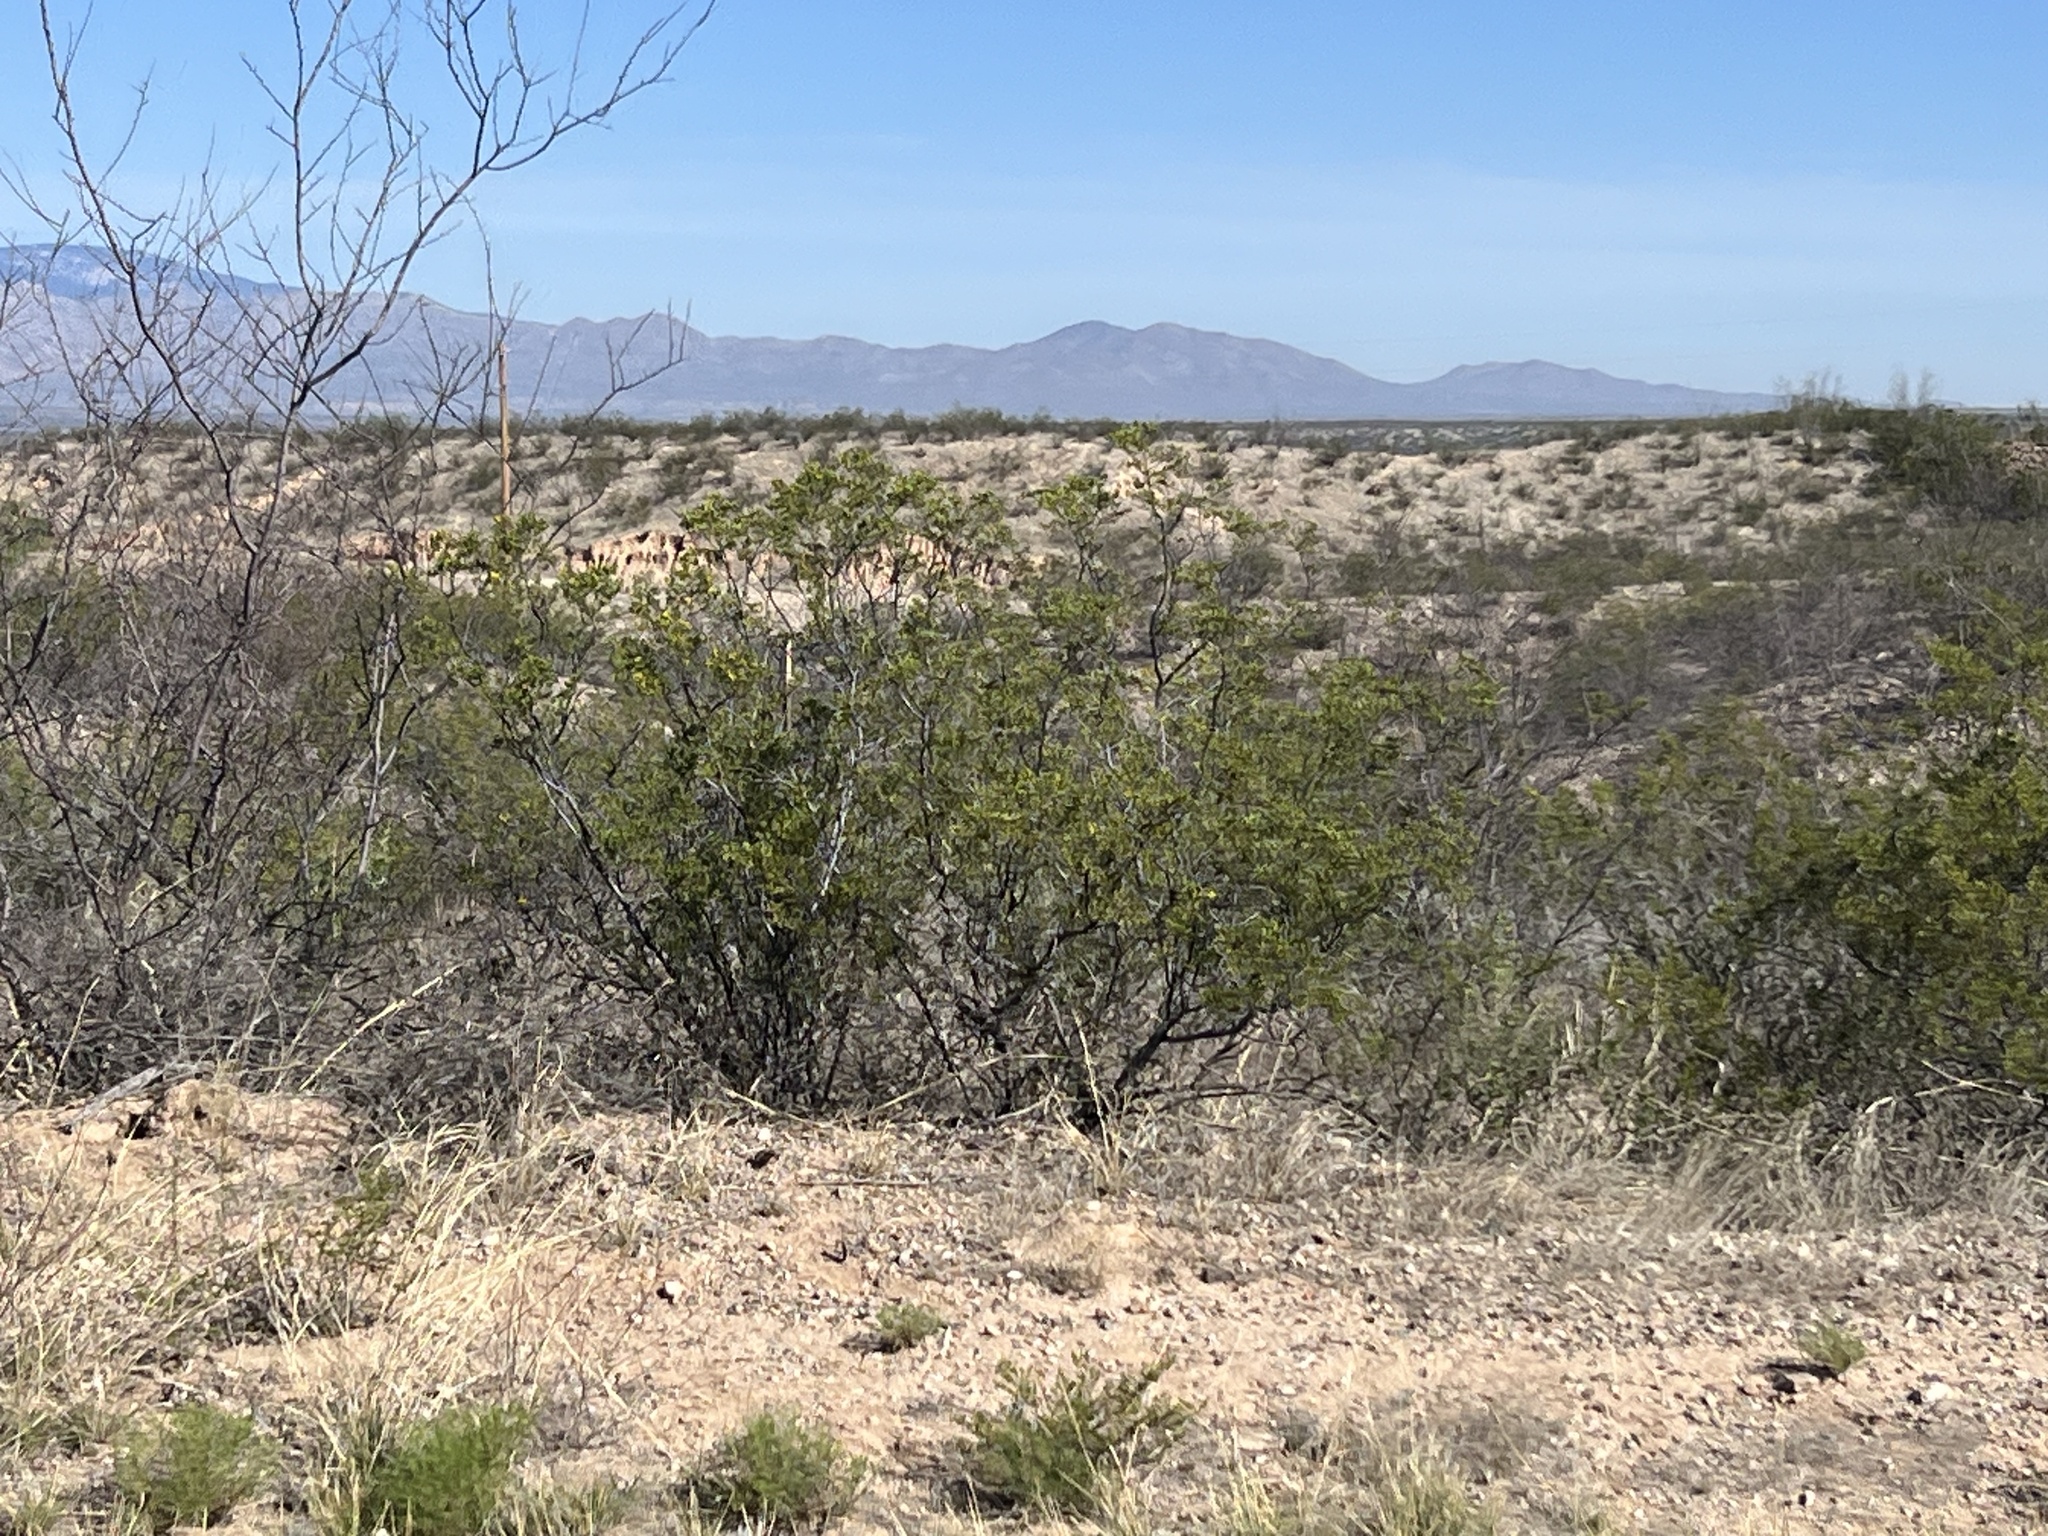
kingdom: Plantae
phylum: Tracheophyta
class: Magnoliopsida
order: Zygophyllales
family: Zygophyllaceae
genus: Larrea
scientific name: Larrea tridentata
